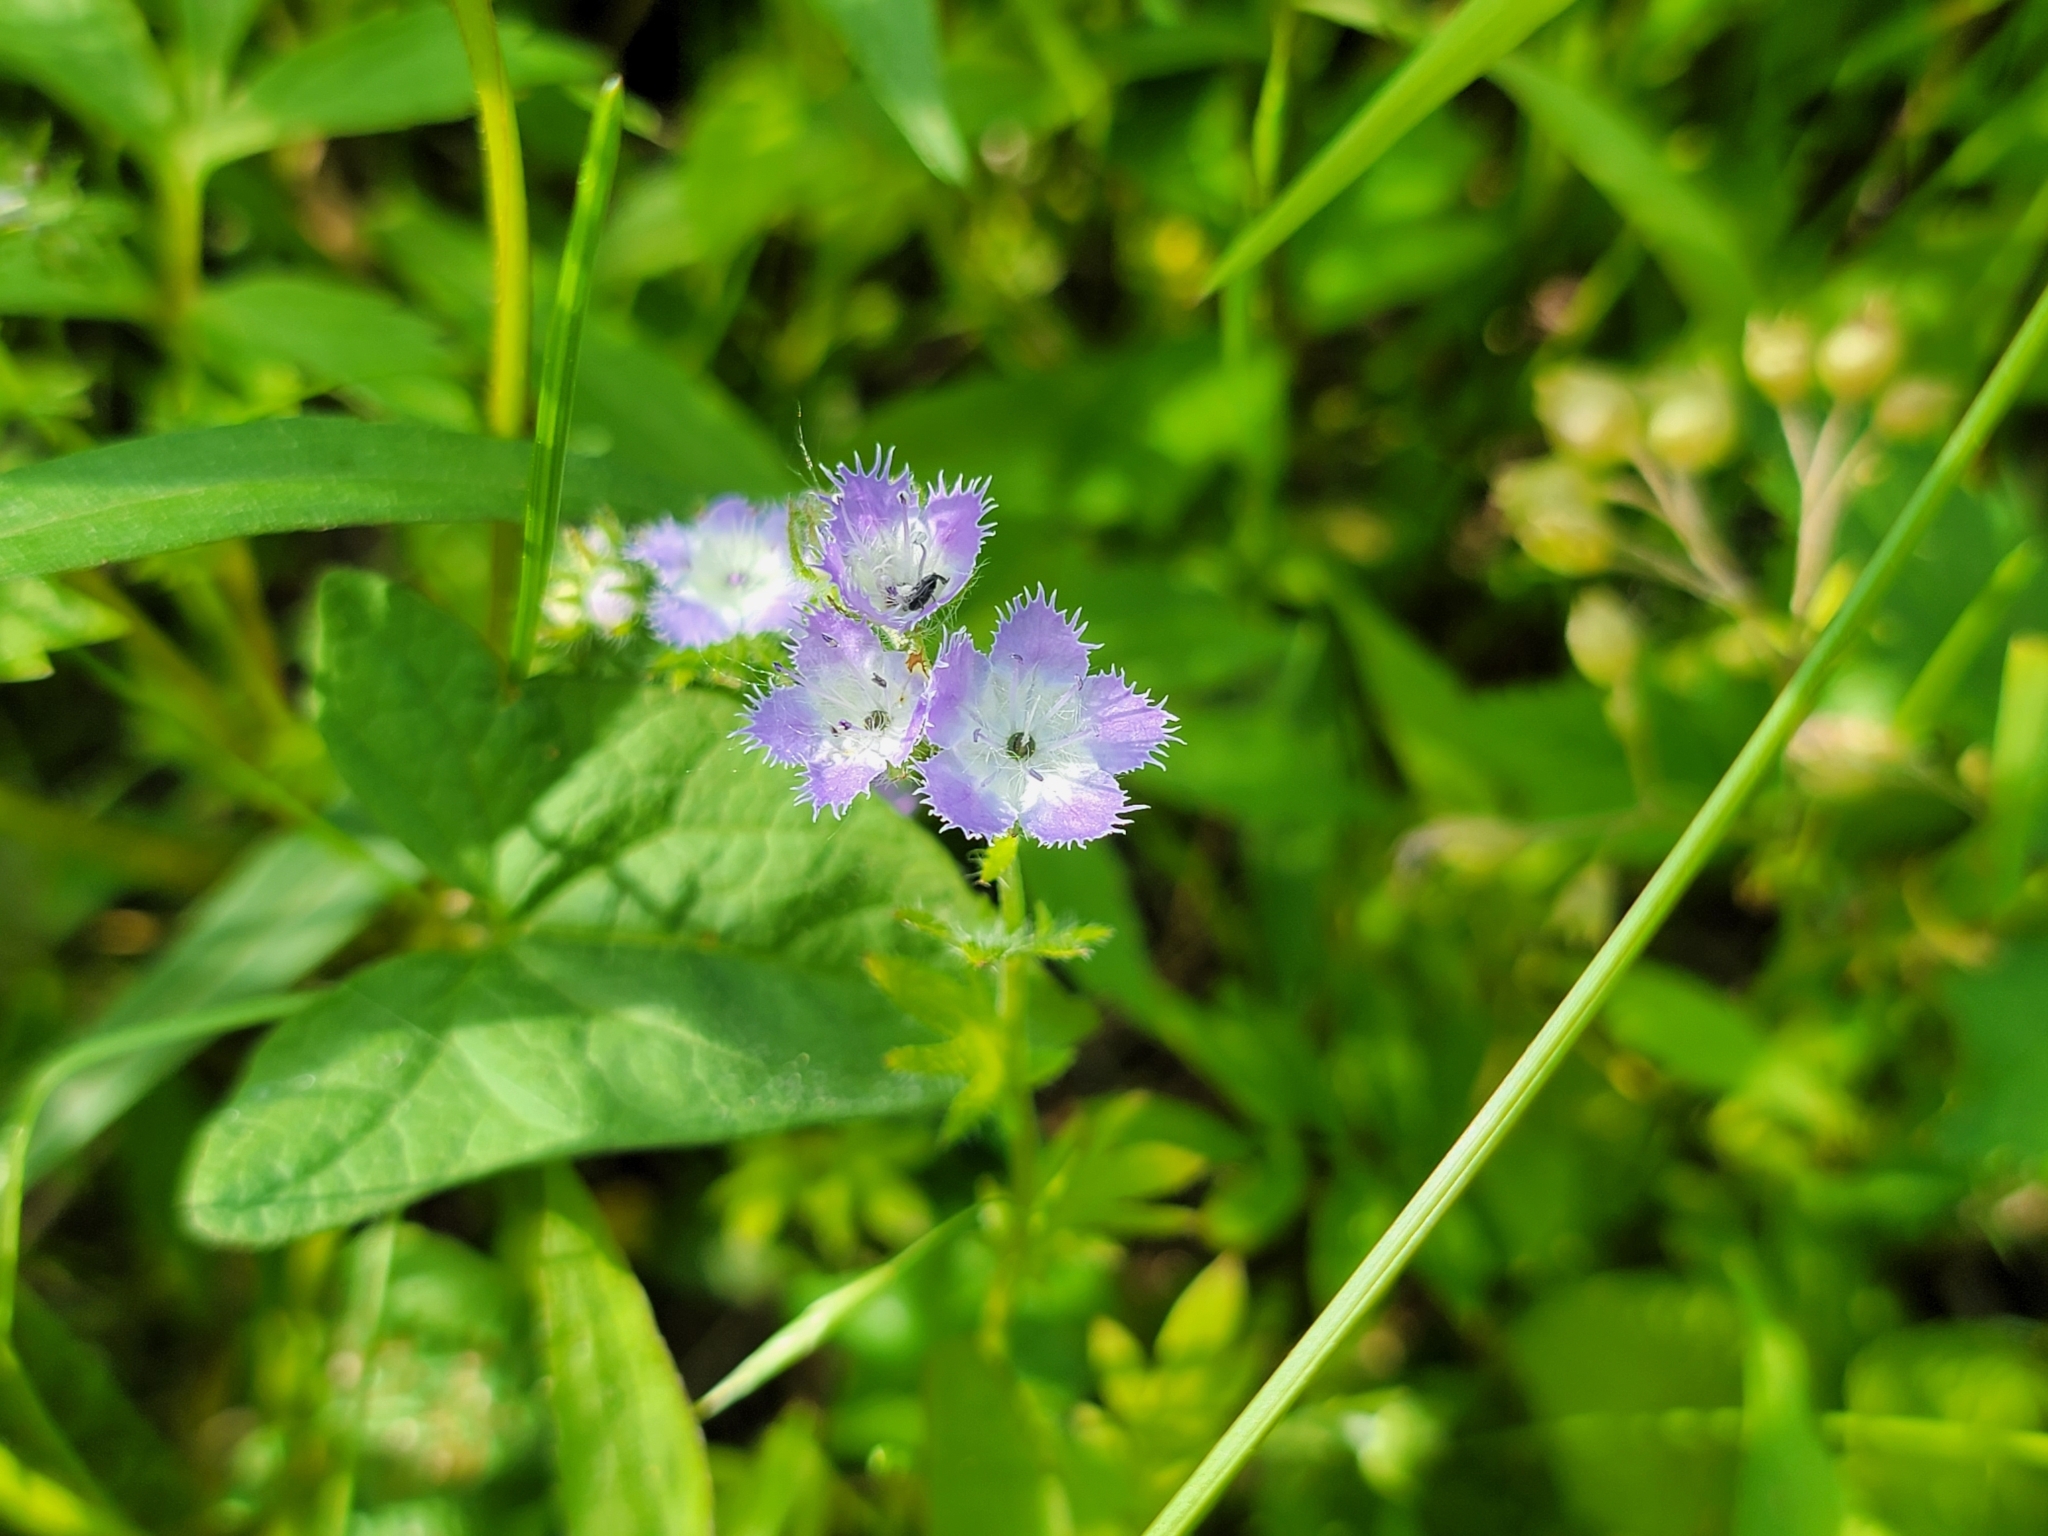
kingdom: Plantae
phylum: Tracheophyta
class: Magnoliopsida
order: Boraginales
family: Hydrophyllaceae
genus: Phacelia
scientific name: Phacelia purshii
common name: Miami-mist
